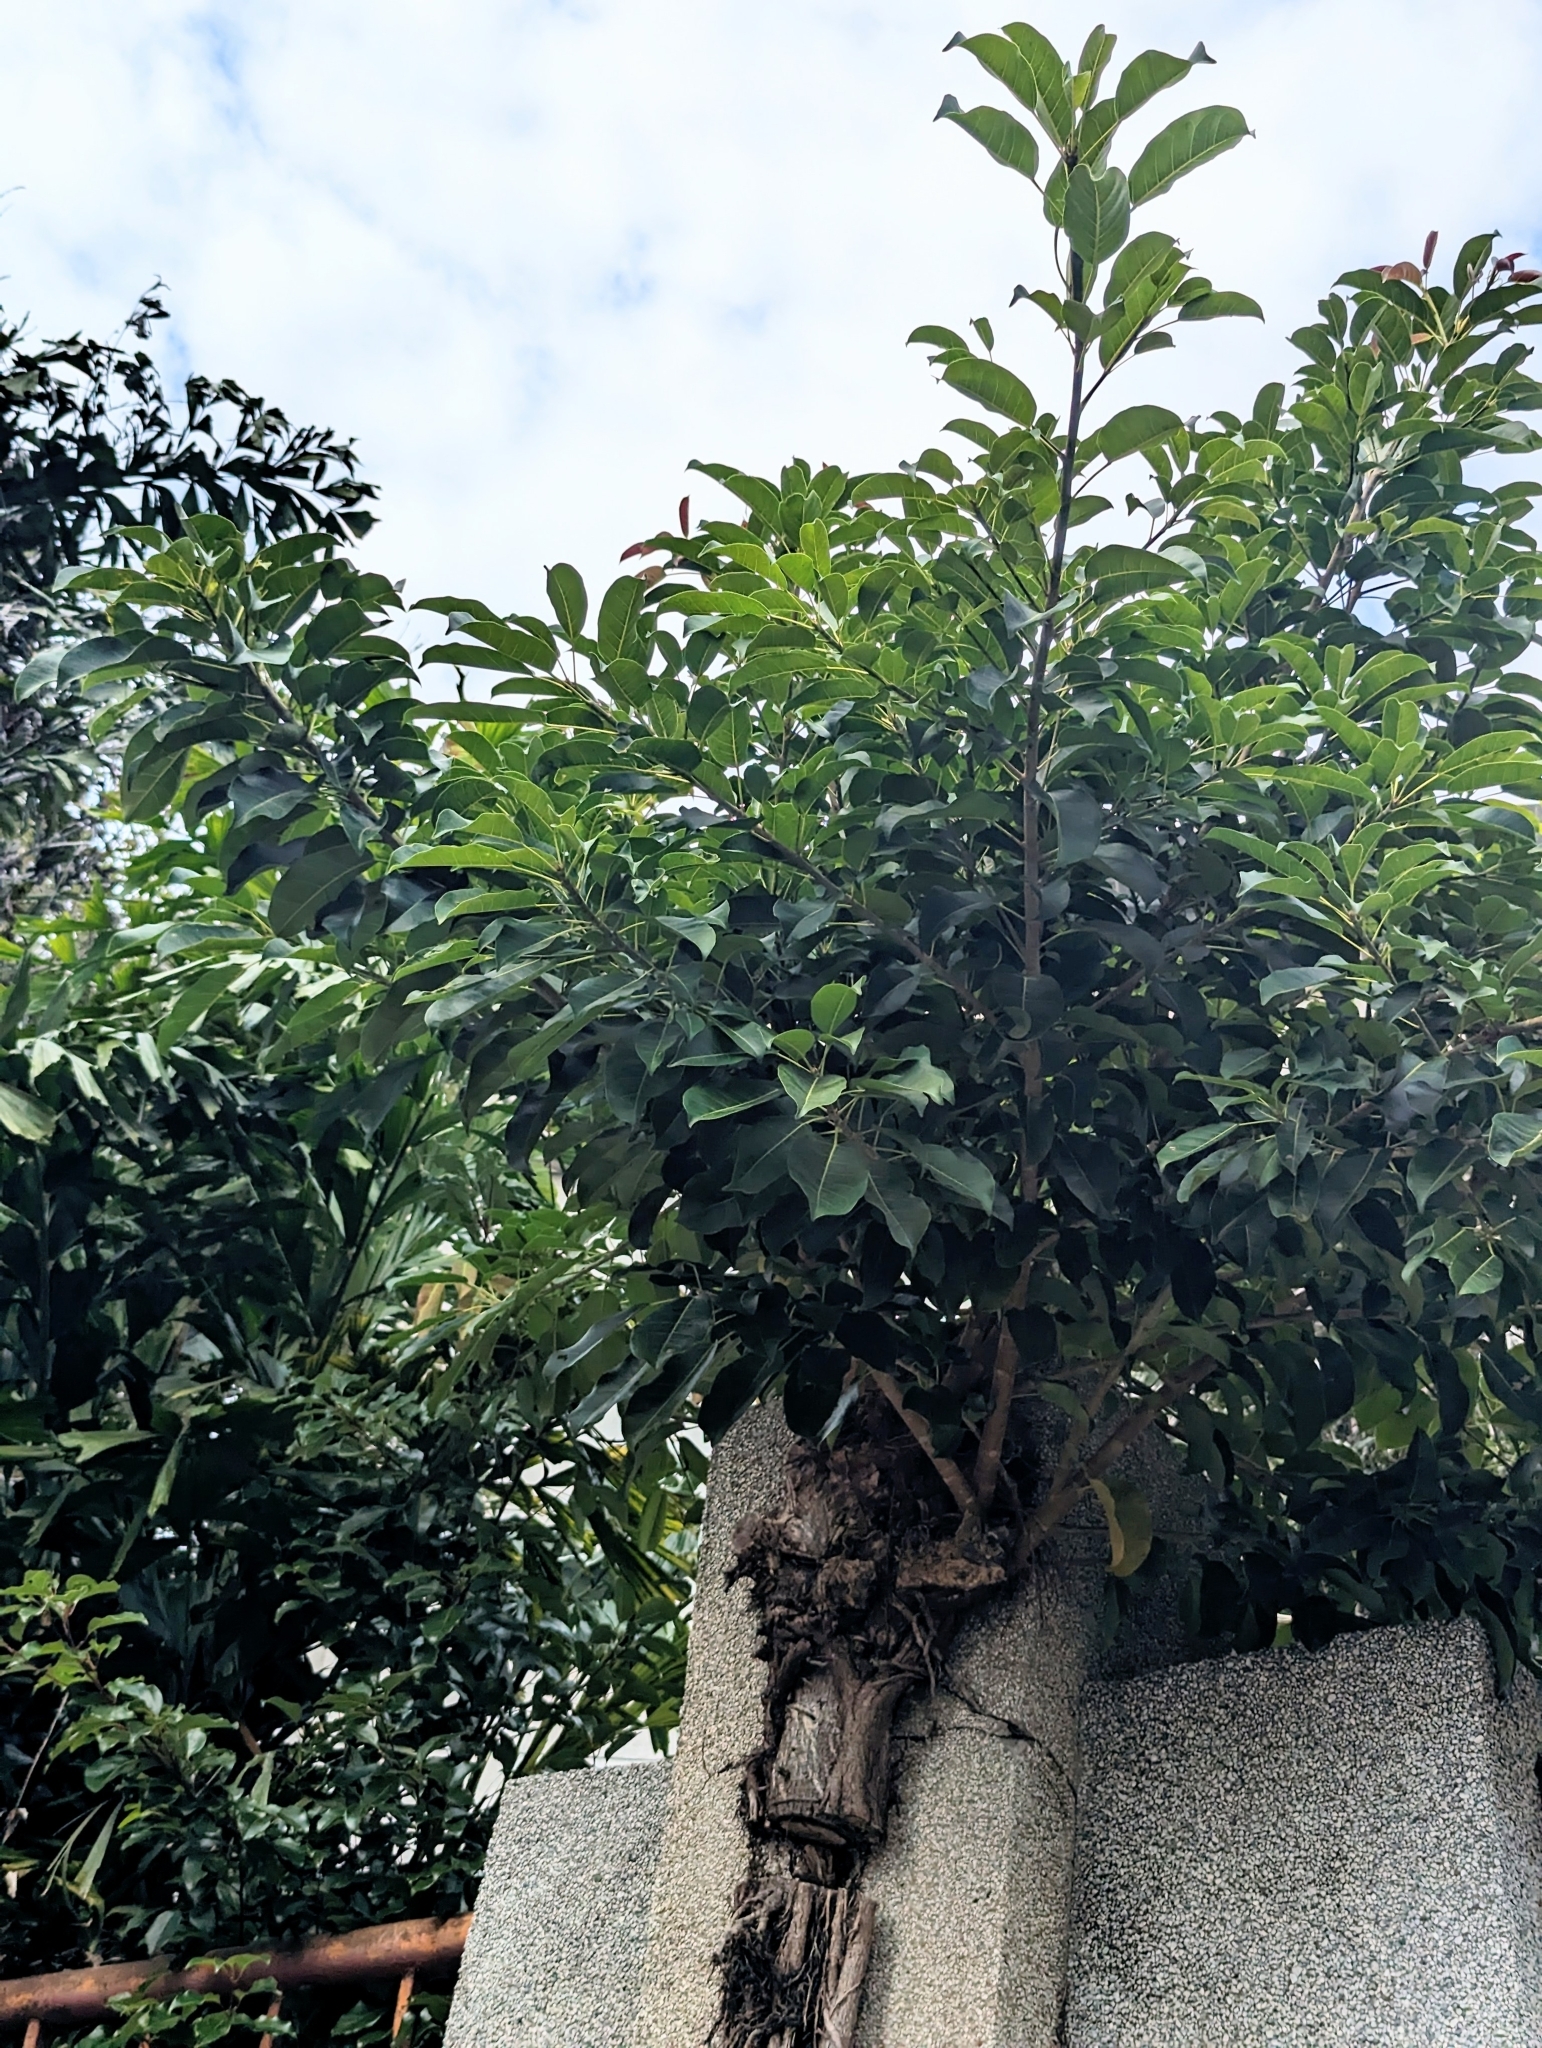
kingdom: Plantae
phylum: Tracheophyta
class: Magnoliopsida
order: Rosales
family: Moraceae
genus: Ficus
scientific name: Ficus subpisocarpa
